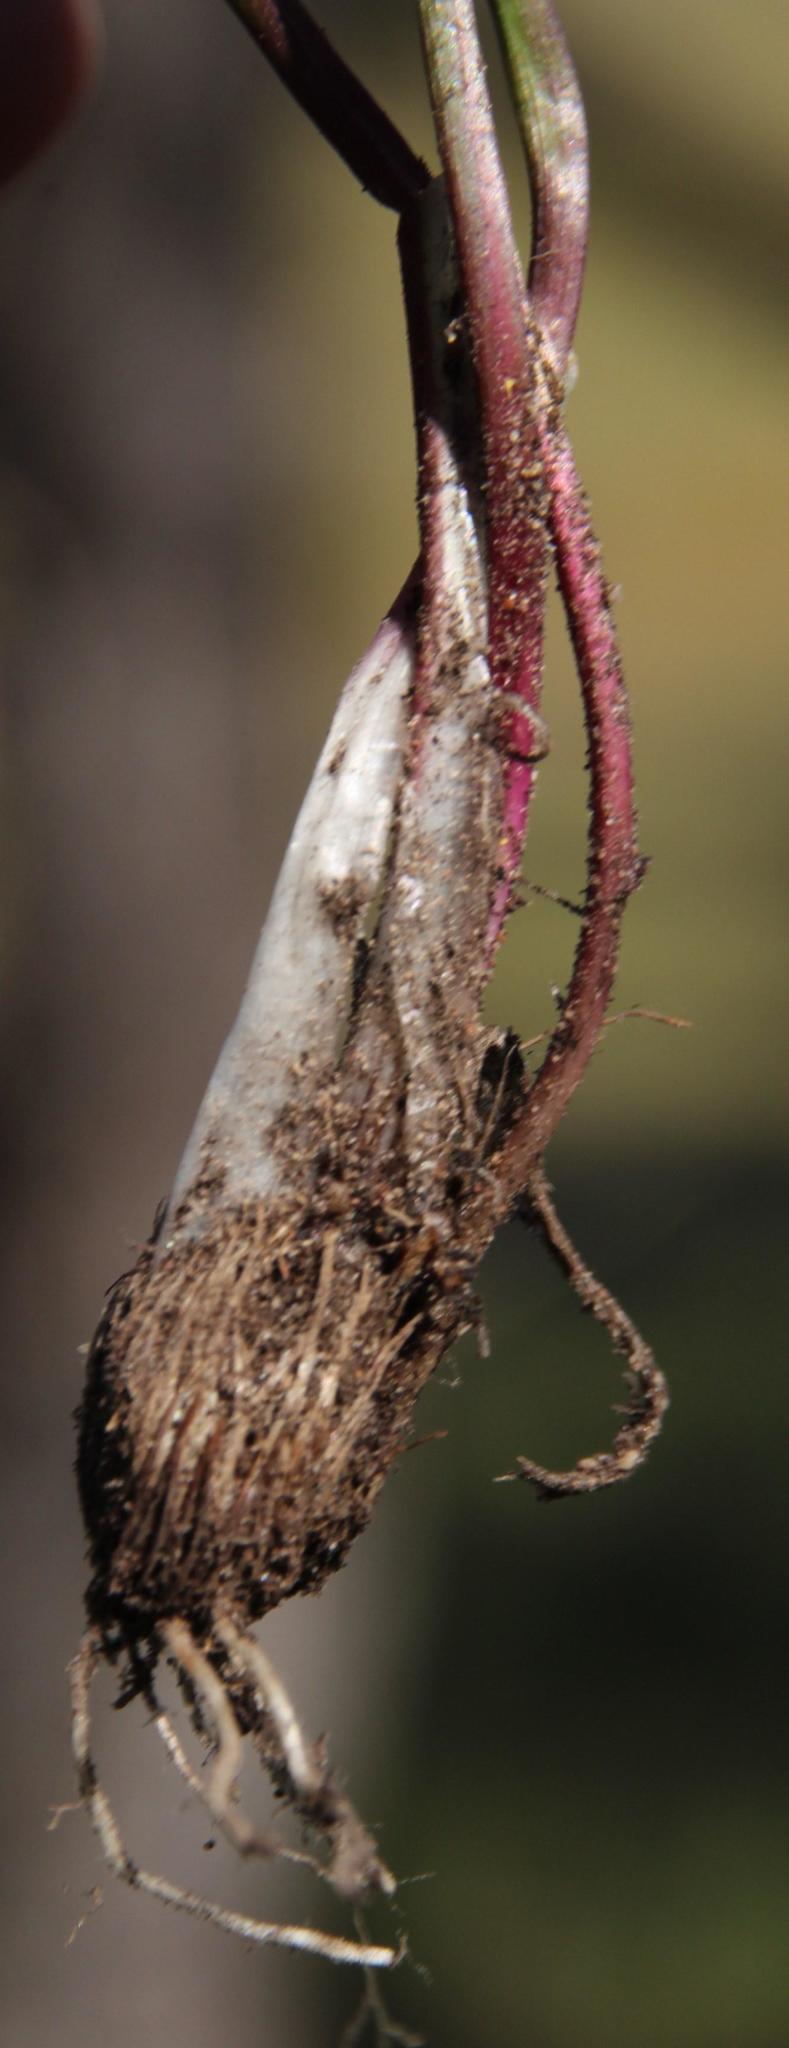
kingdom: Plantae
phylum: Tracheophyta
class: Liliopsida
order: Alismatales
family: Juncaginaceae
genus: Triglochin
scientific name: Triglochin bulbosa
